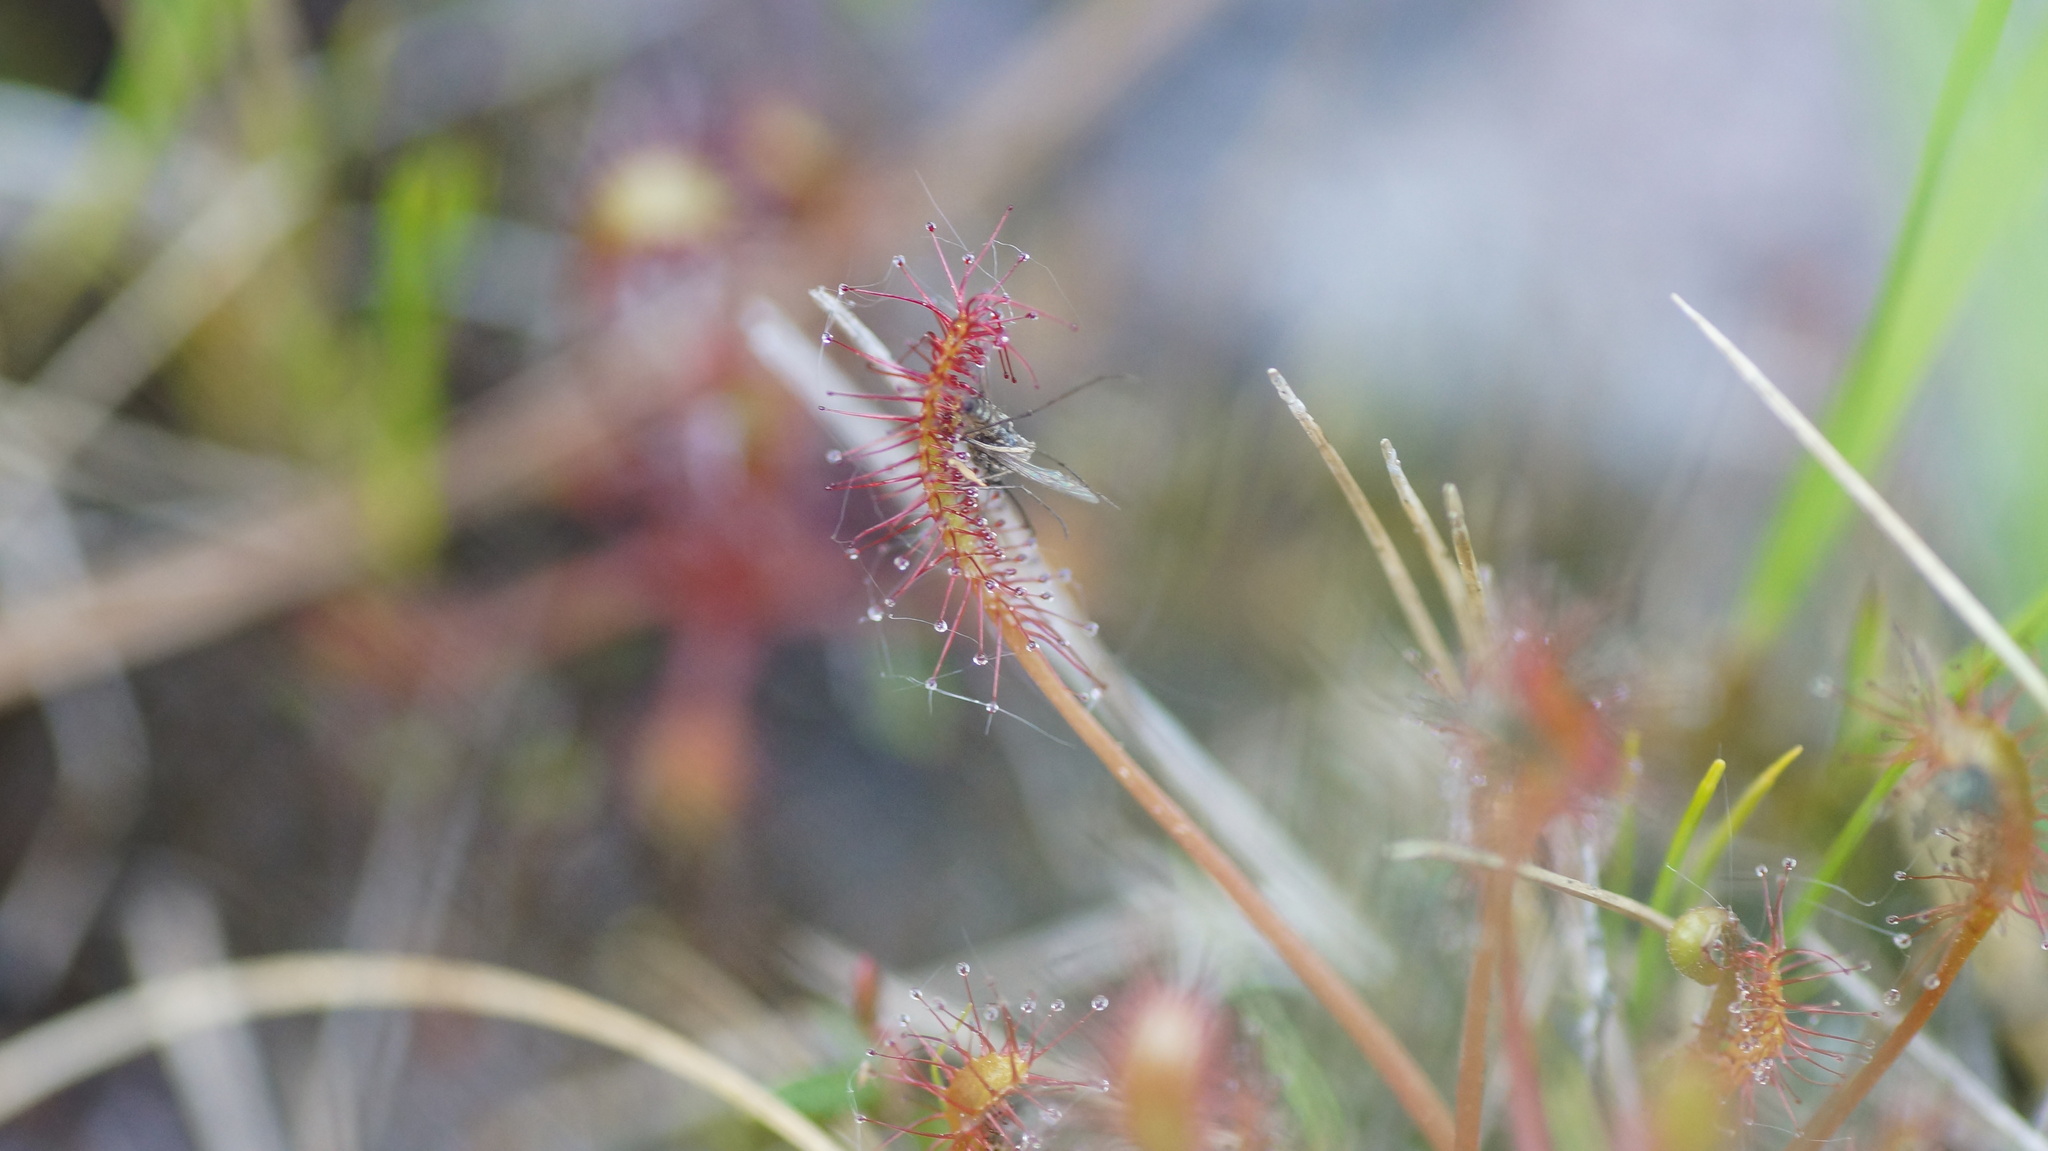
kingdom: Plantae
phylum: Tracheophyta
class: Magnoliopsida
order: Caryophyllales
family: Droseraceae
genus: Drosera
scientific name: Drosera anglica
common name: Great sundew
